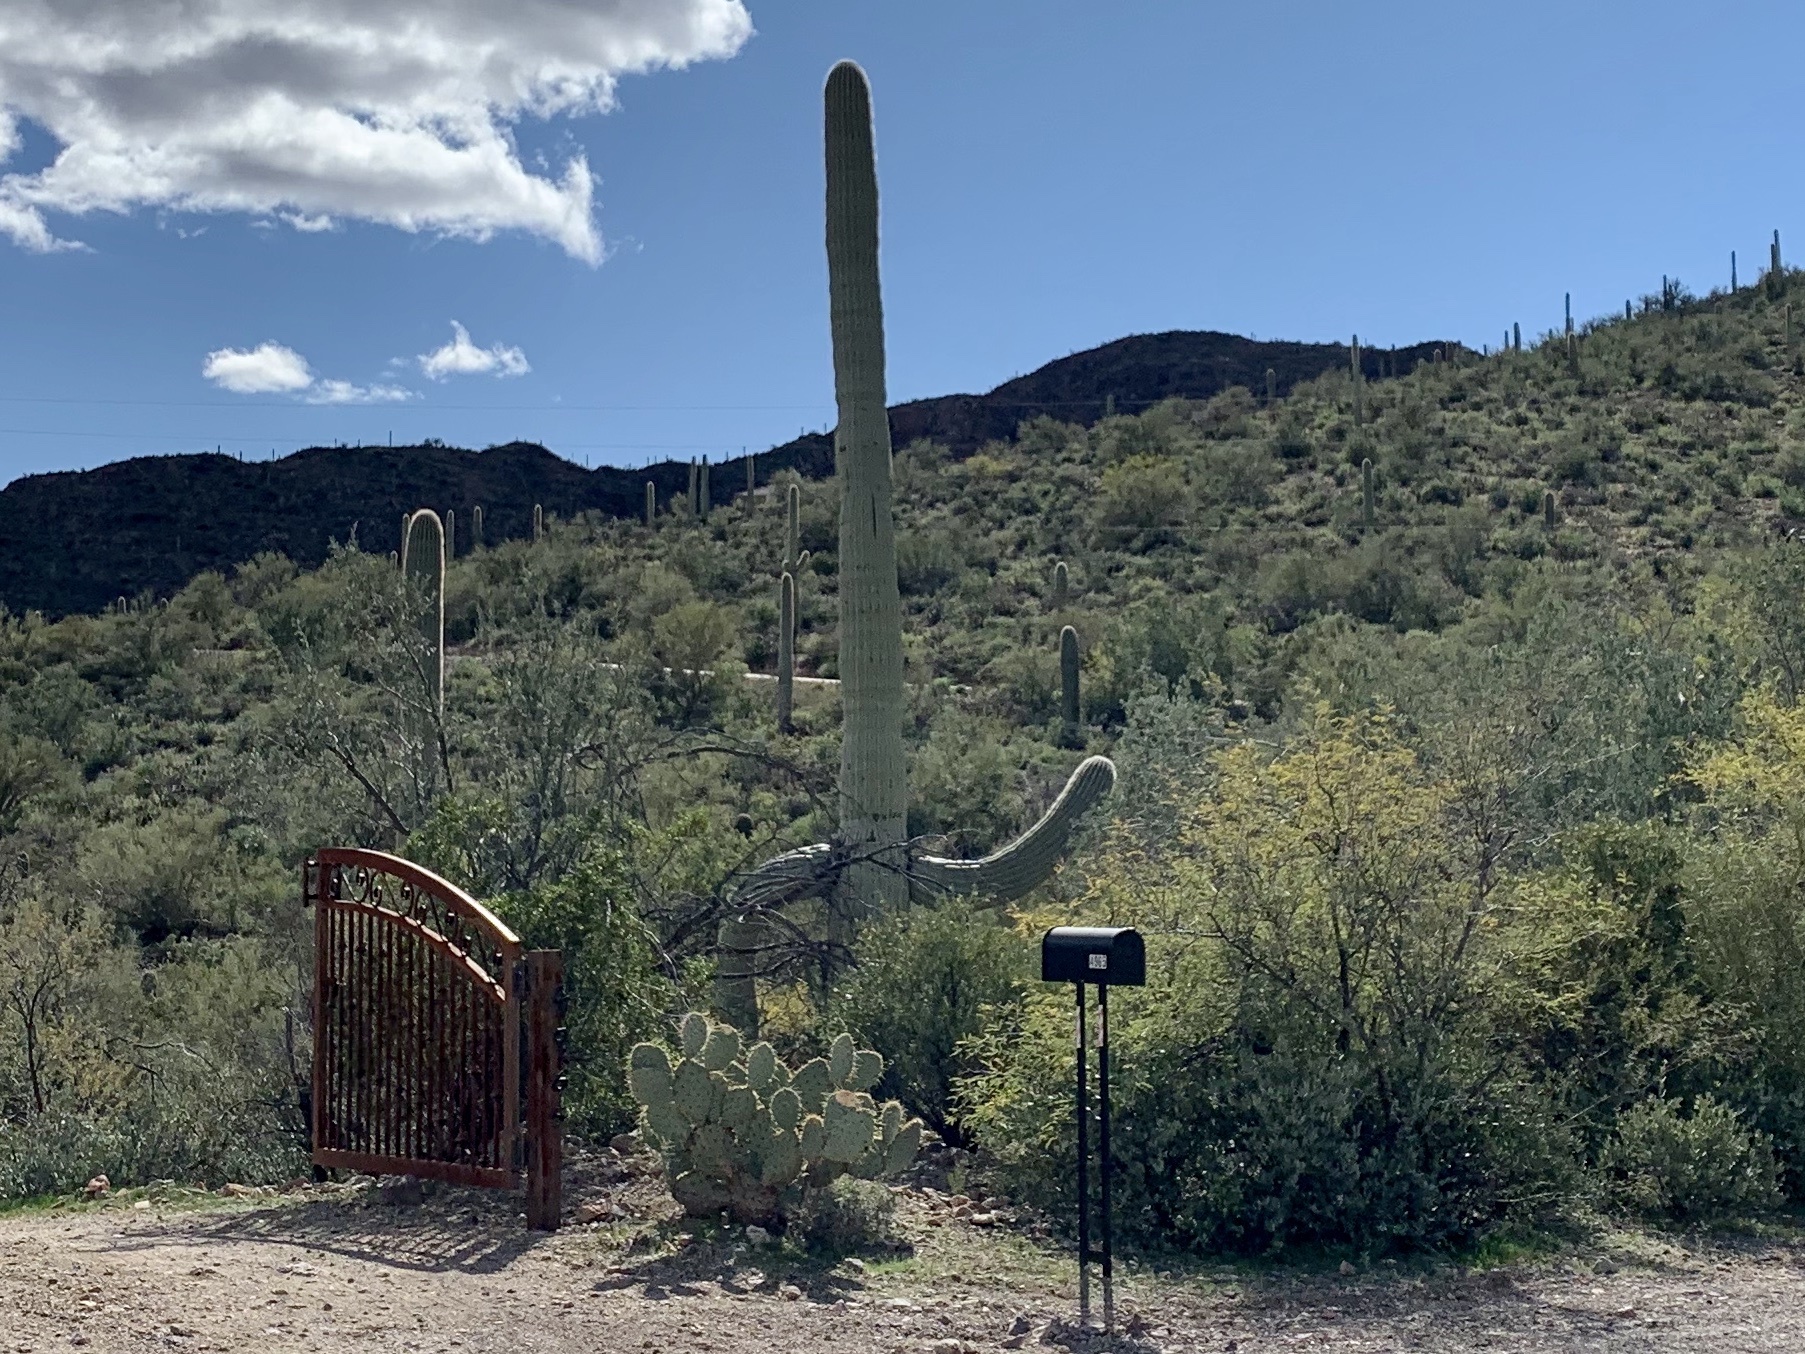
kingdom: Plantae
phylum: Tracheophyta
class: Magnoliopsida
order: Caryophyllales
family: Cactaceae
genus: Carnegiea
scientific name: Carnegiea gigantea
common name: Saguaro
